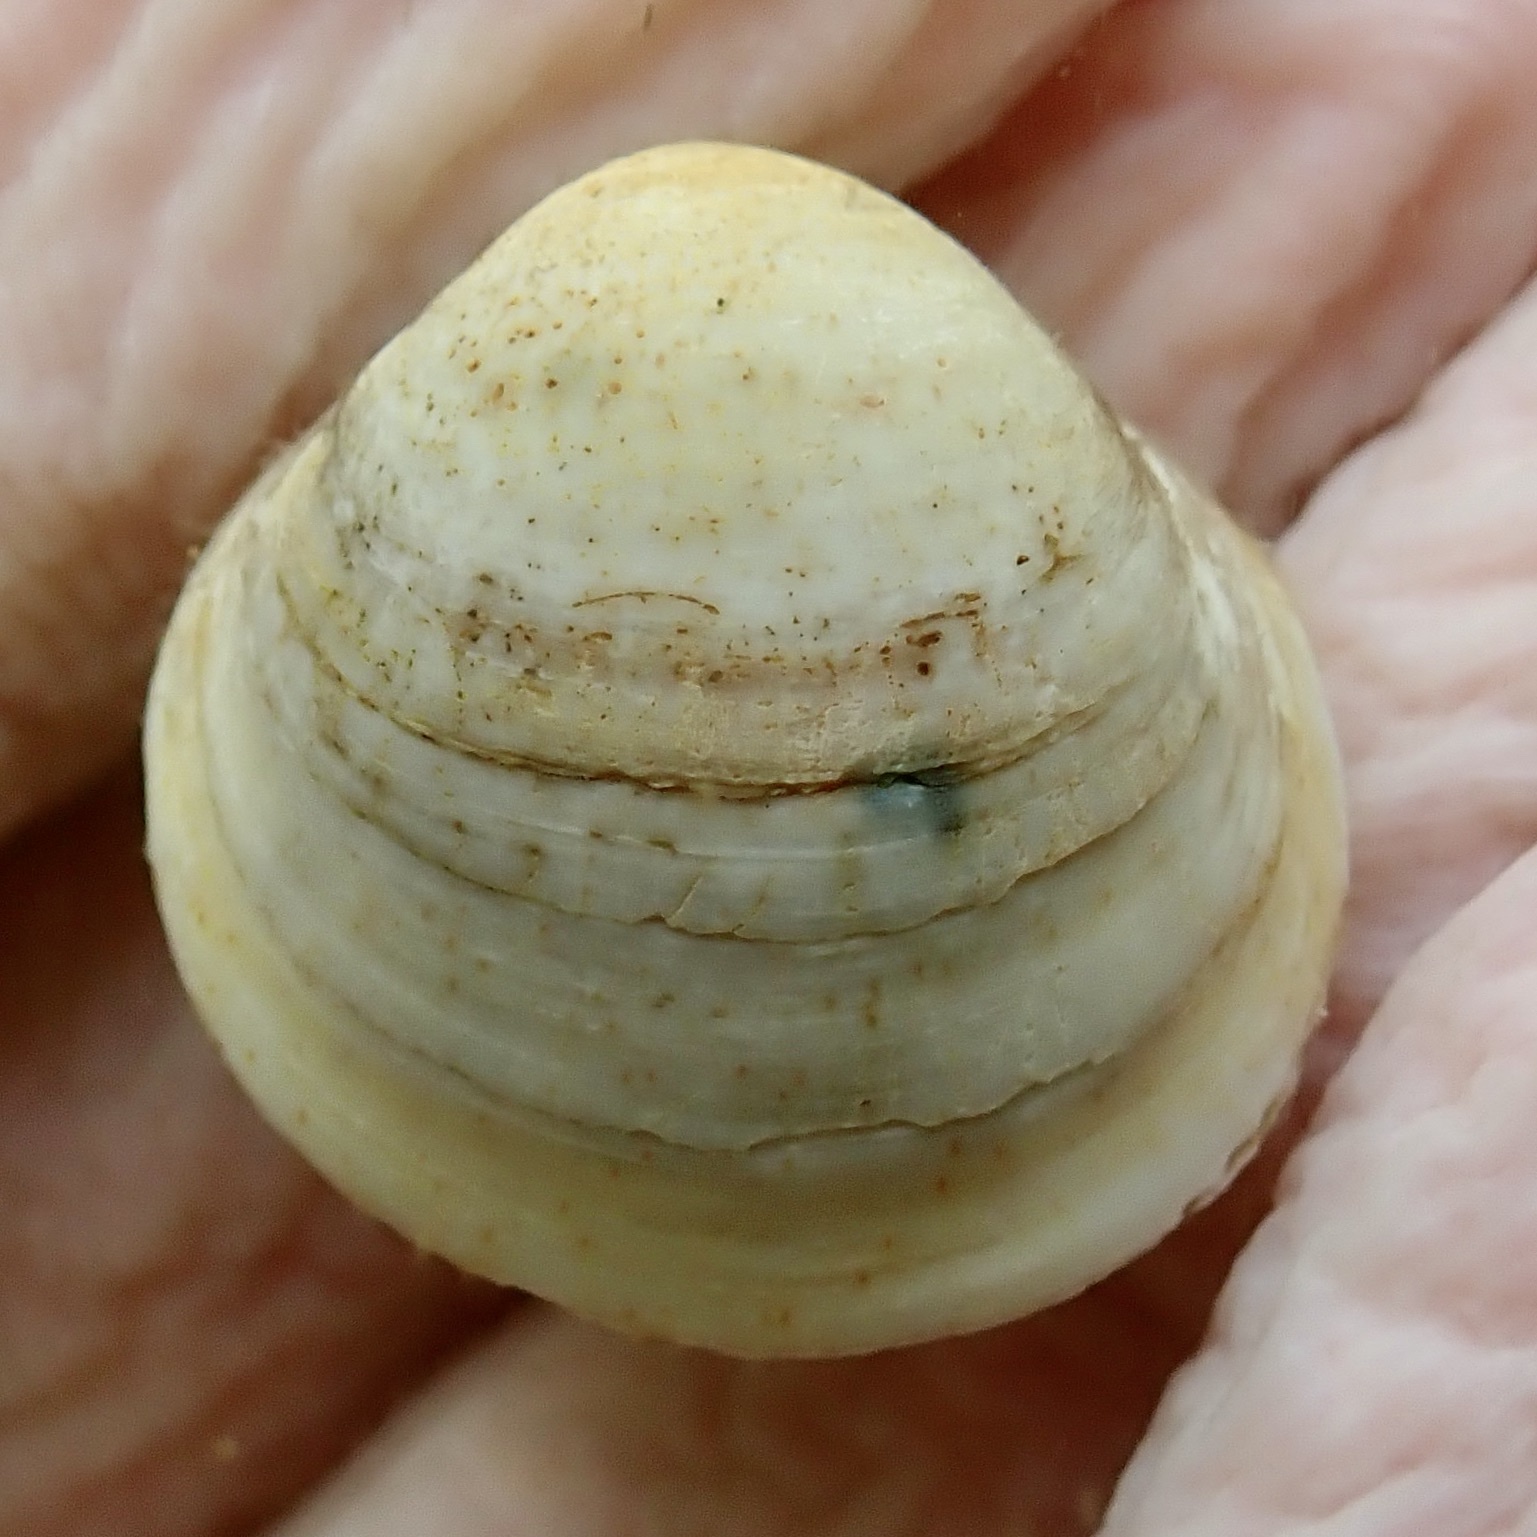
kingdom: Animalia
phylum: Mollusca
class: Bivalvia
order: Cardiida
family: Cardiidae
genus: Laevicardium
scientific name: Laevicardium mortoni
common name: Morton eggcockle
